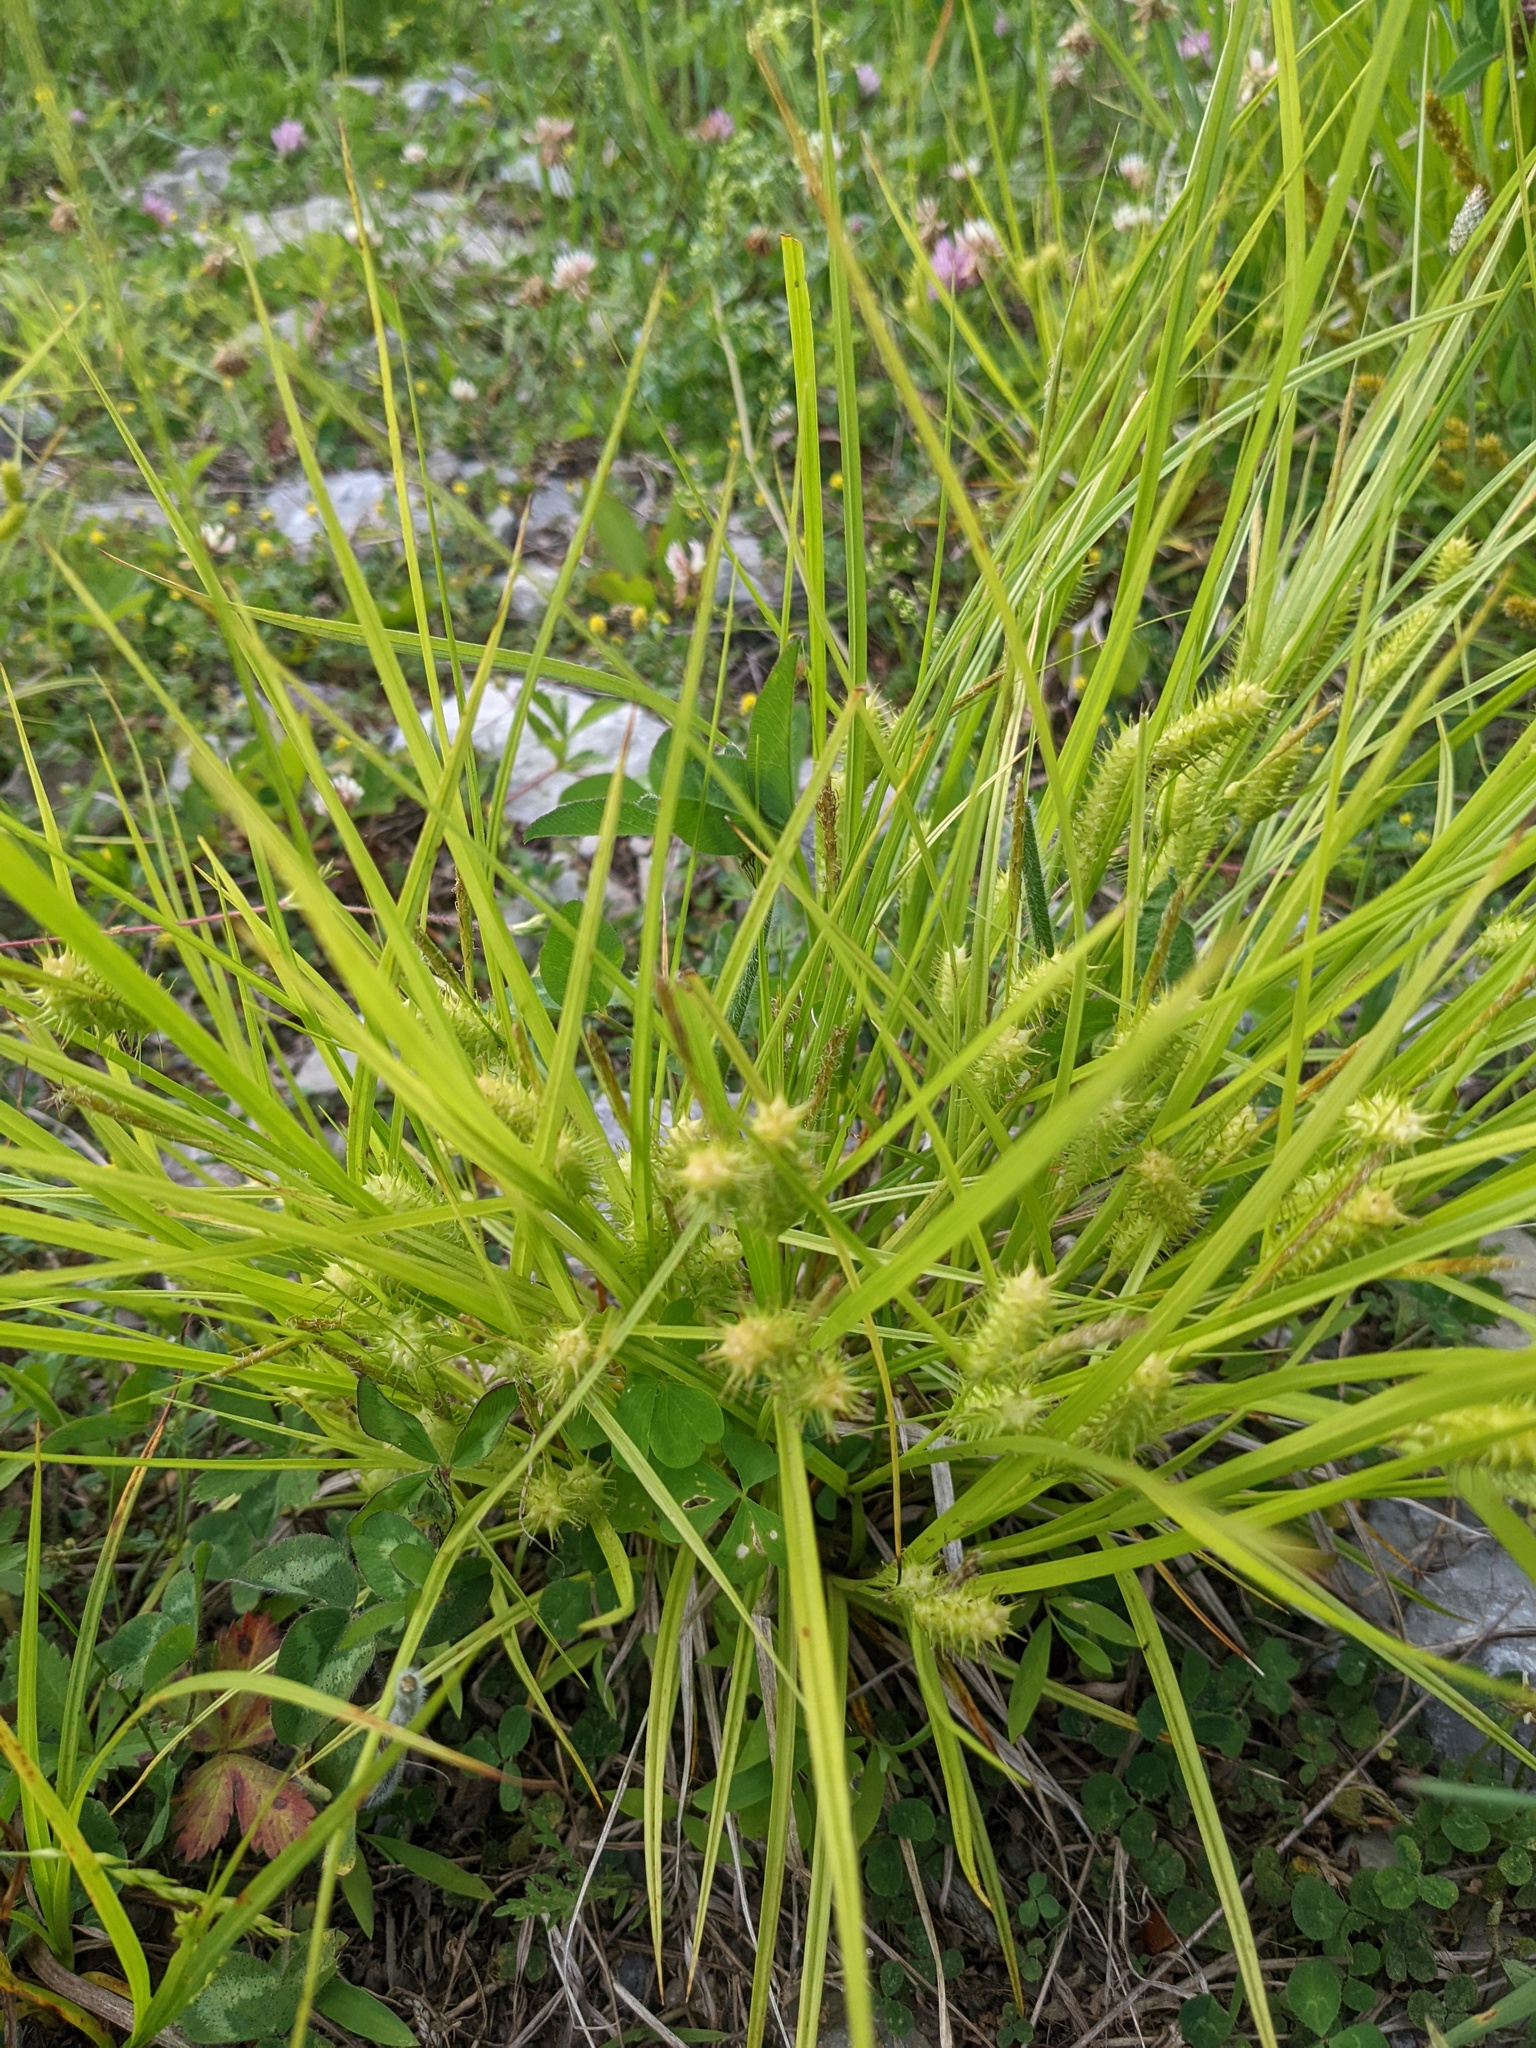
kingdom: Plantae
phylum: Tracheophyta
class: Liliopsida
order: Poales
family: Cyperaceae
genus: Carex
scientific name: Carex lurida
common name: Sallow sedge
